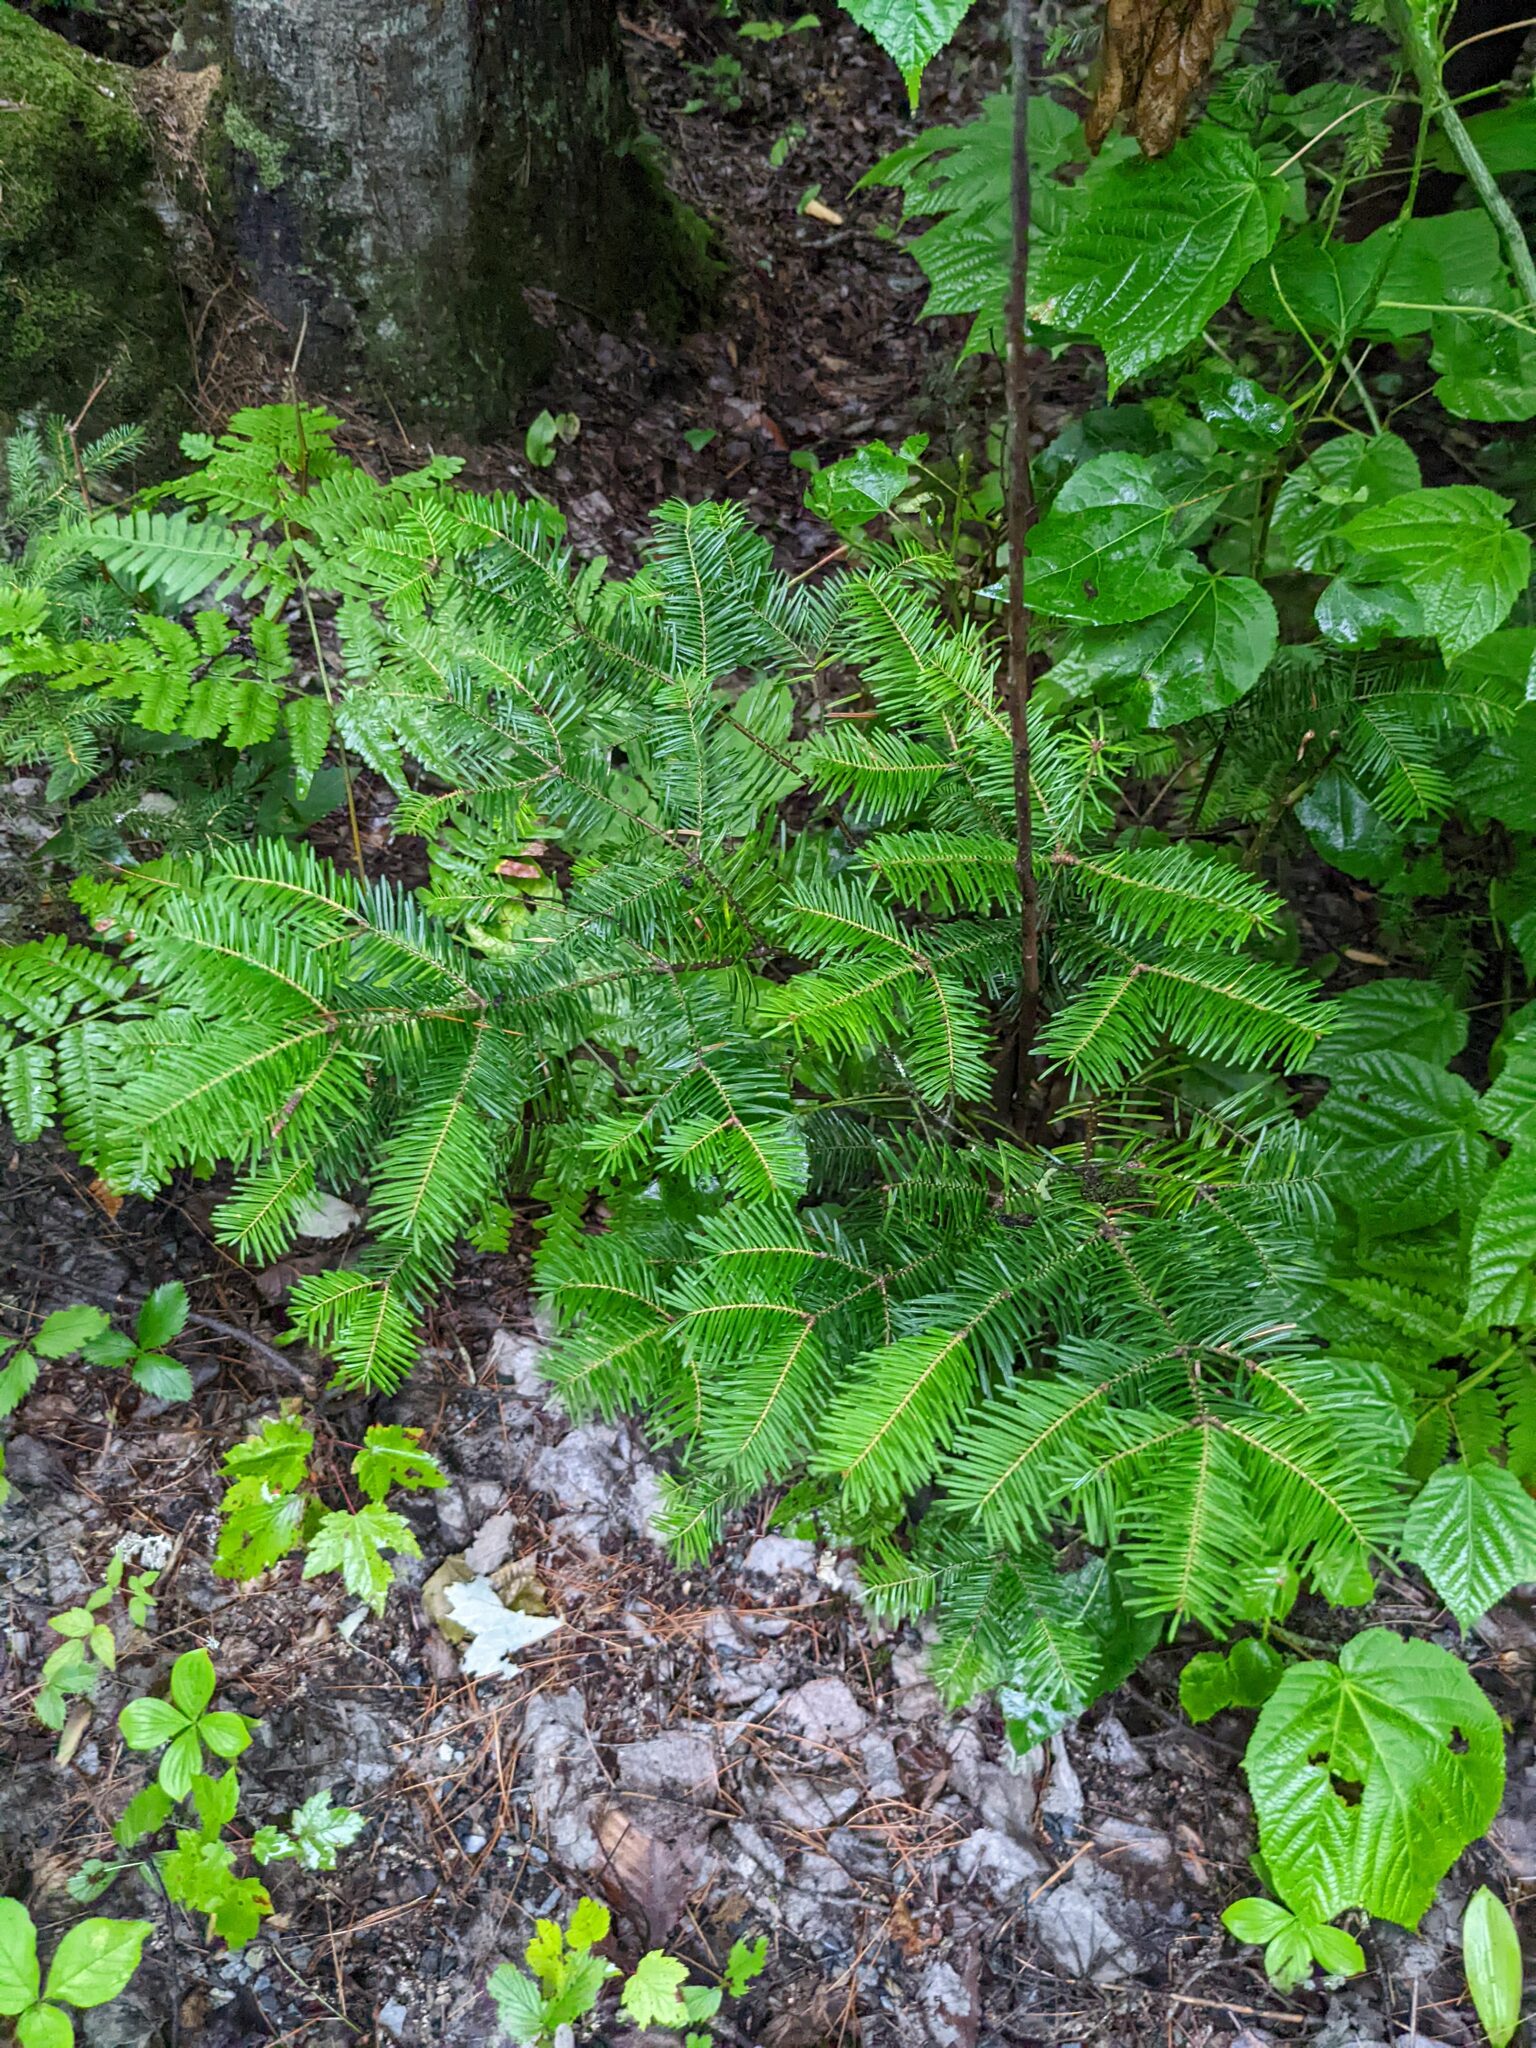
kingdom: Plantae
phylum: Tracheophyta
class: Pinopsida
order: Pinales
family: Pinaceae
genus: Abies
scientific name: Abies balsamea
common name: Balsam fir
